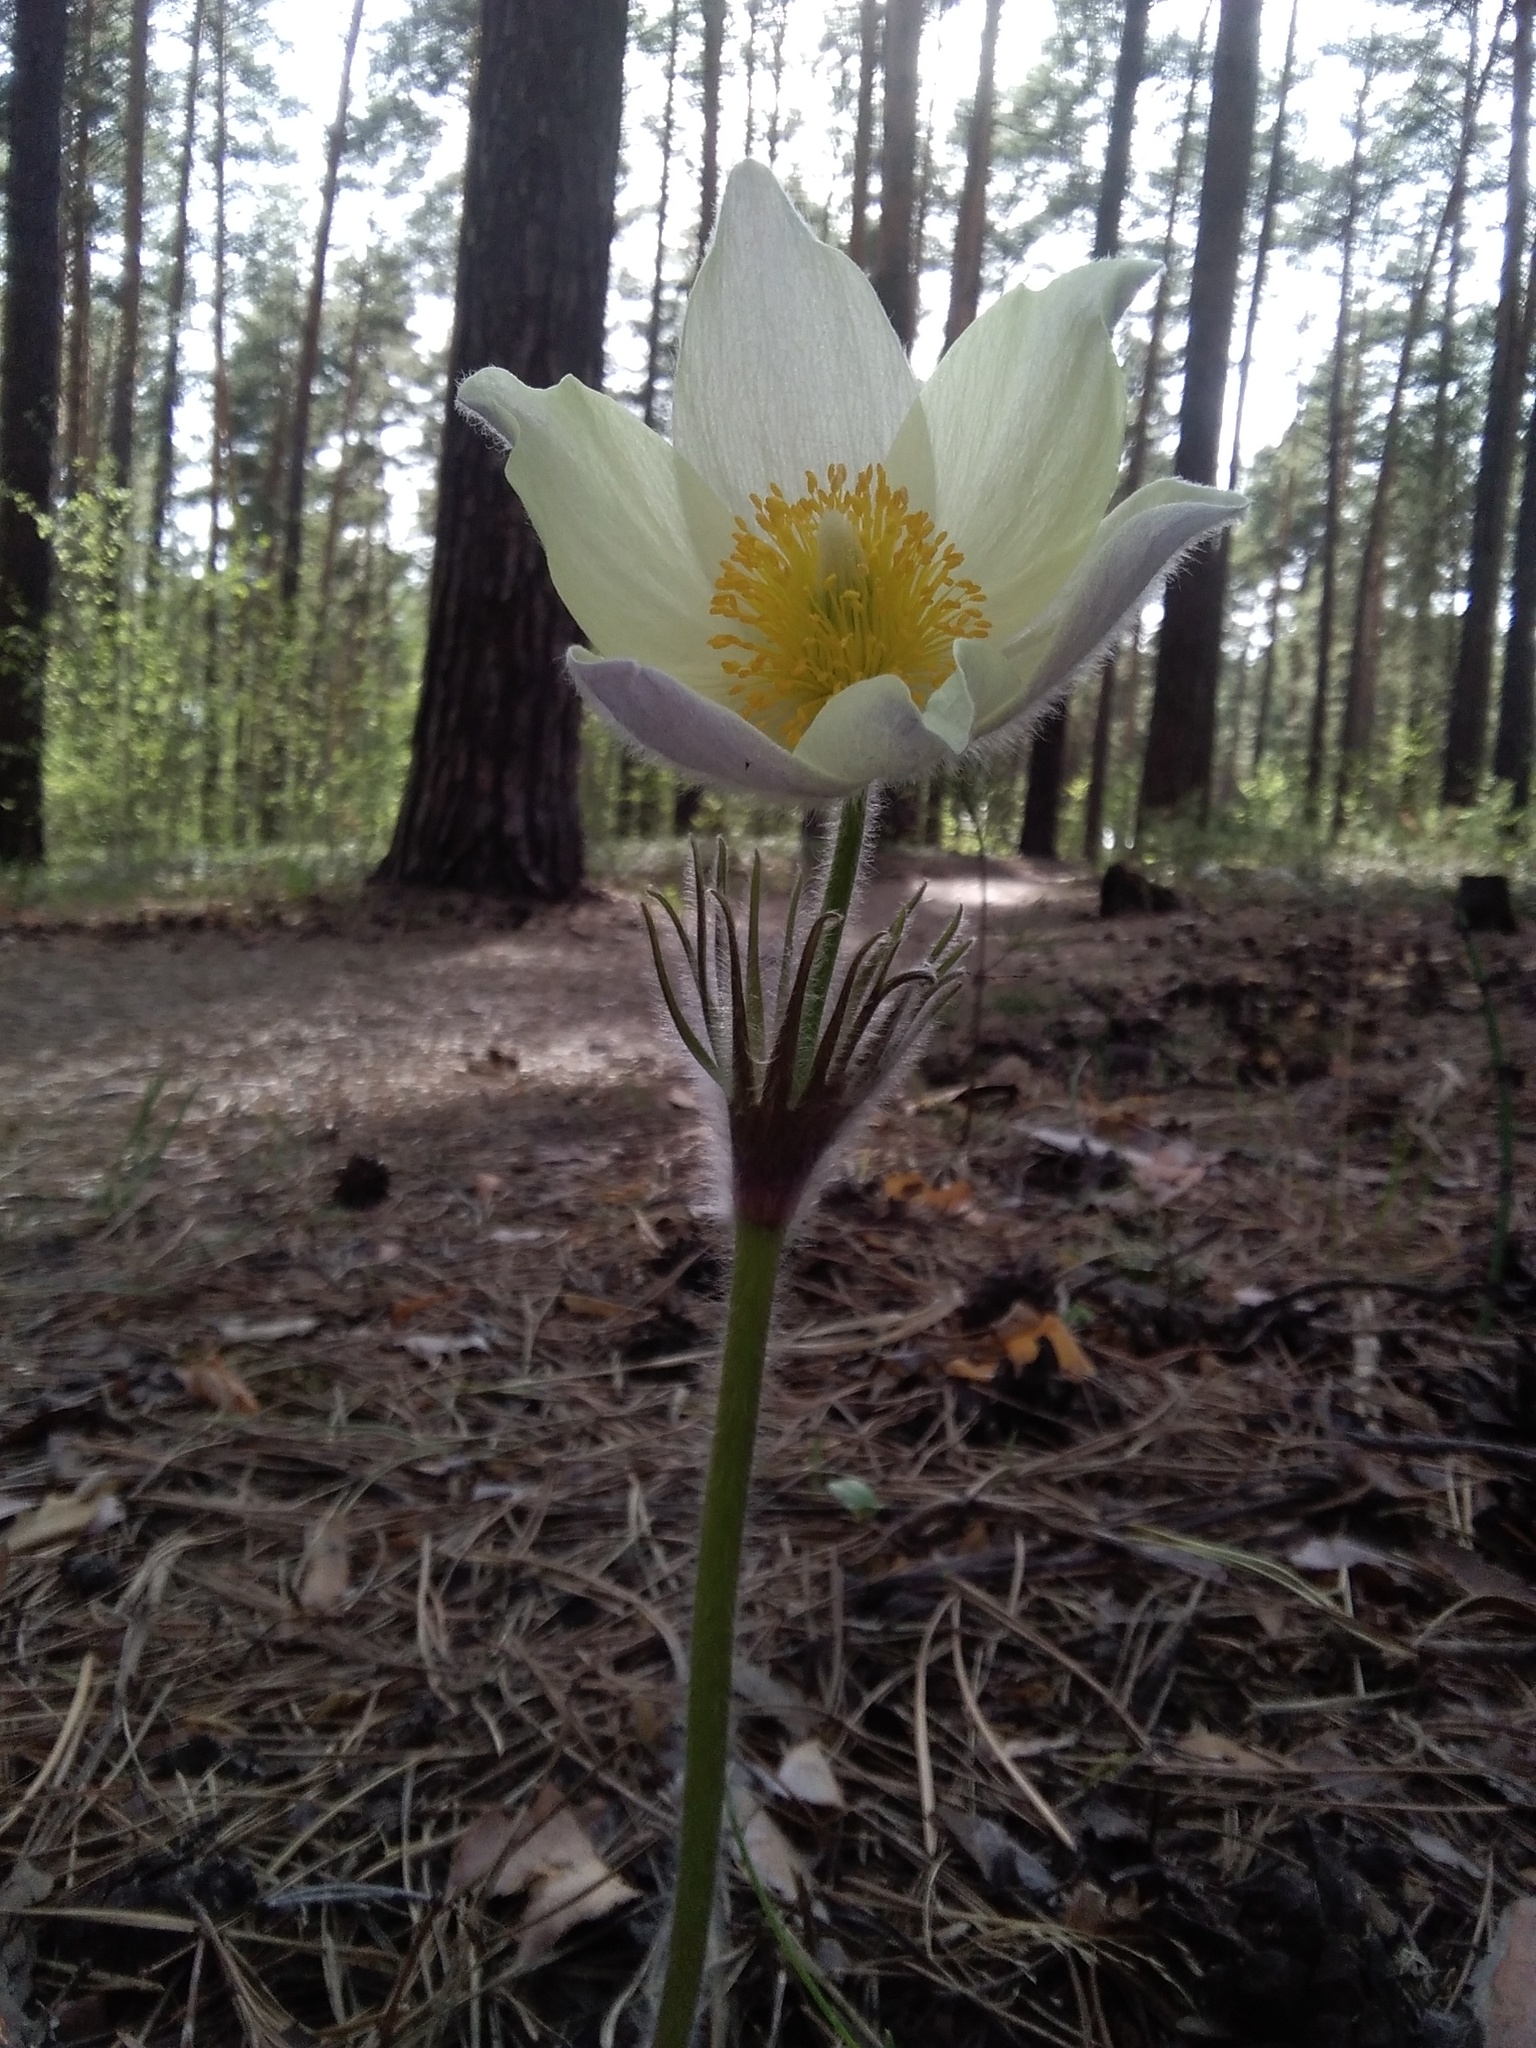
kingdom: Plantae
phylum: Tracheophyta
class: Magnoliopsida
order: Ranunculales
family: Ranunculaceae
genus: Pulsatilla
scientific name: Pulsatilla patens
